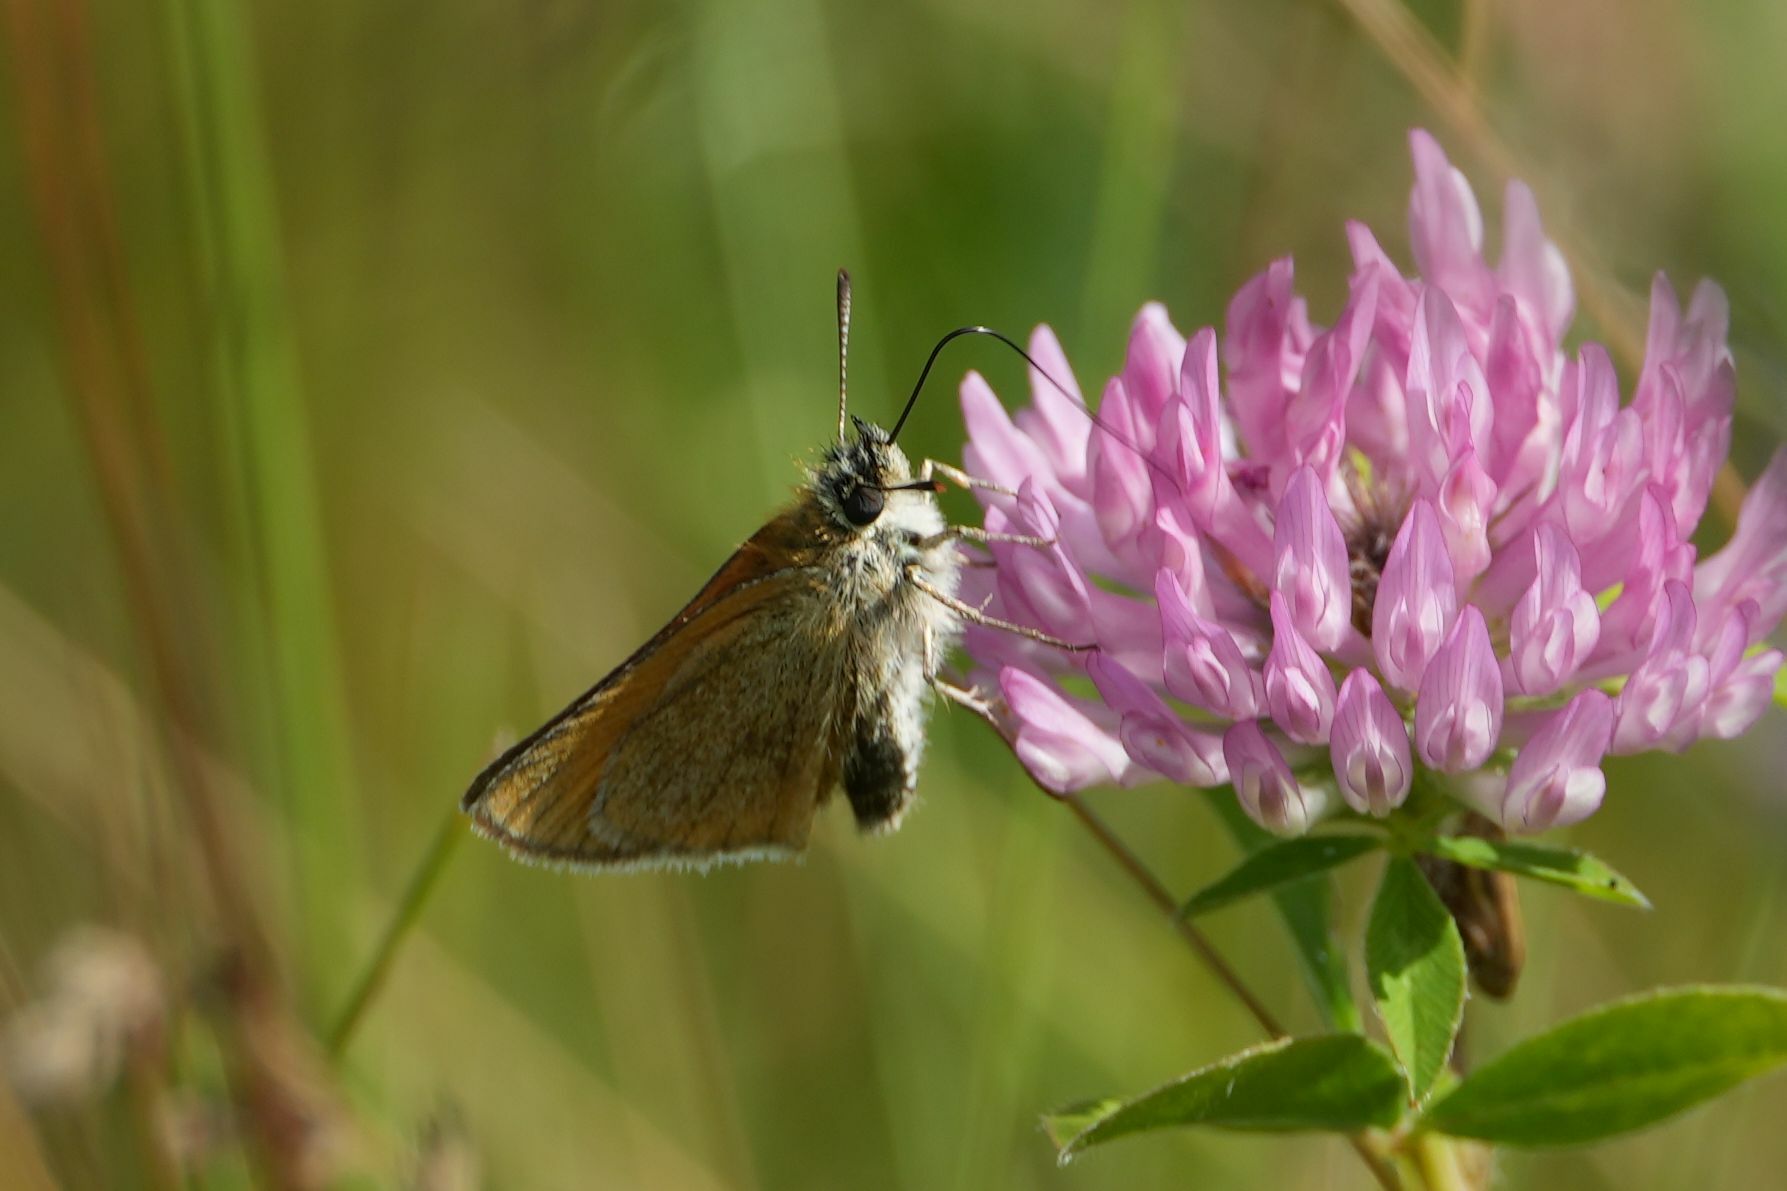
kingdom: Animalia
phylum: Arthropoda
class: Insecta
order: Lepidoptera
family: Hesperiidae
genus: Thymelicus
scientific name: Thymelicus lineola
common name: Essex skipper
